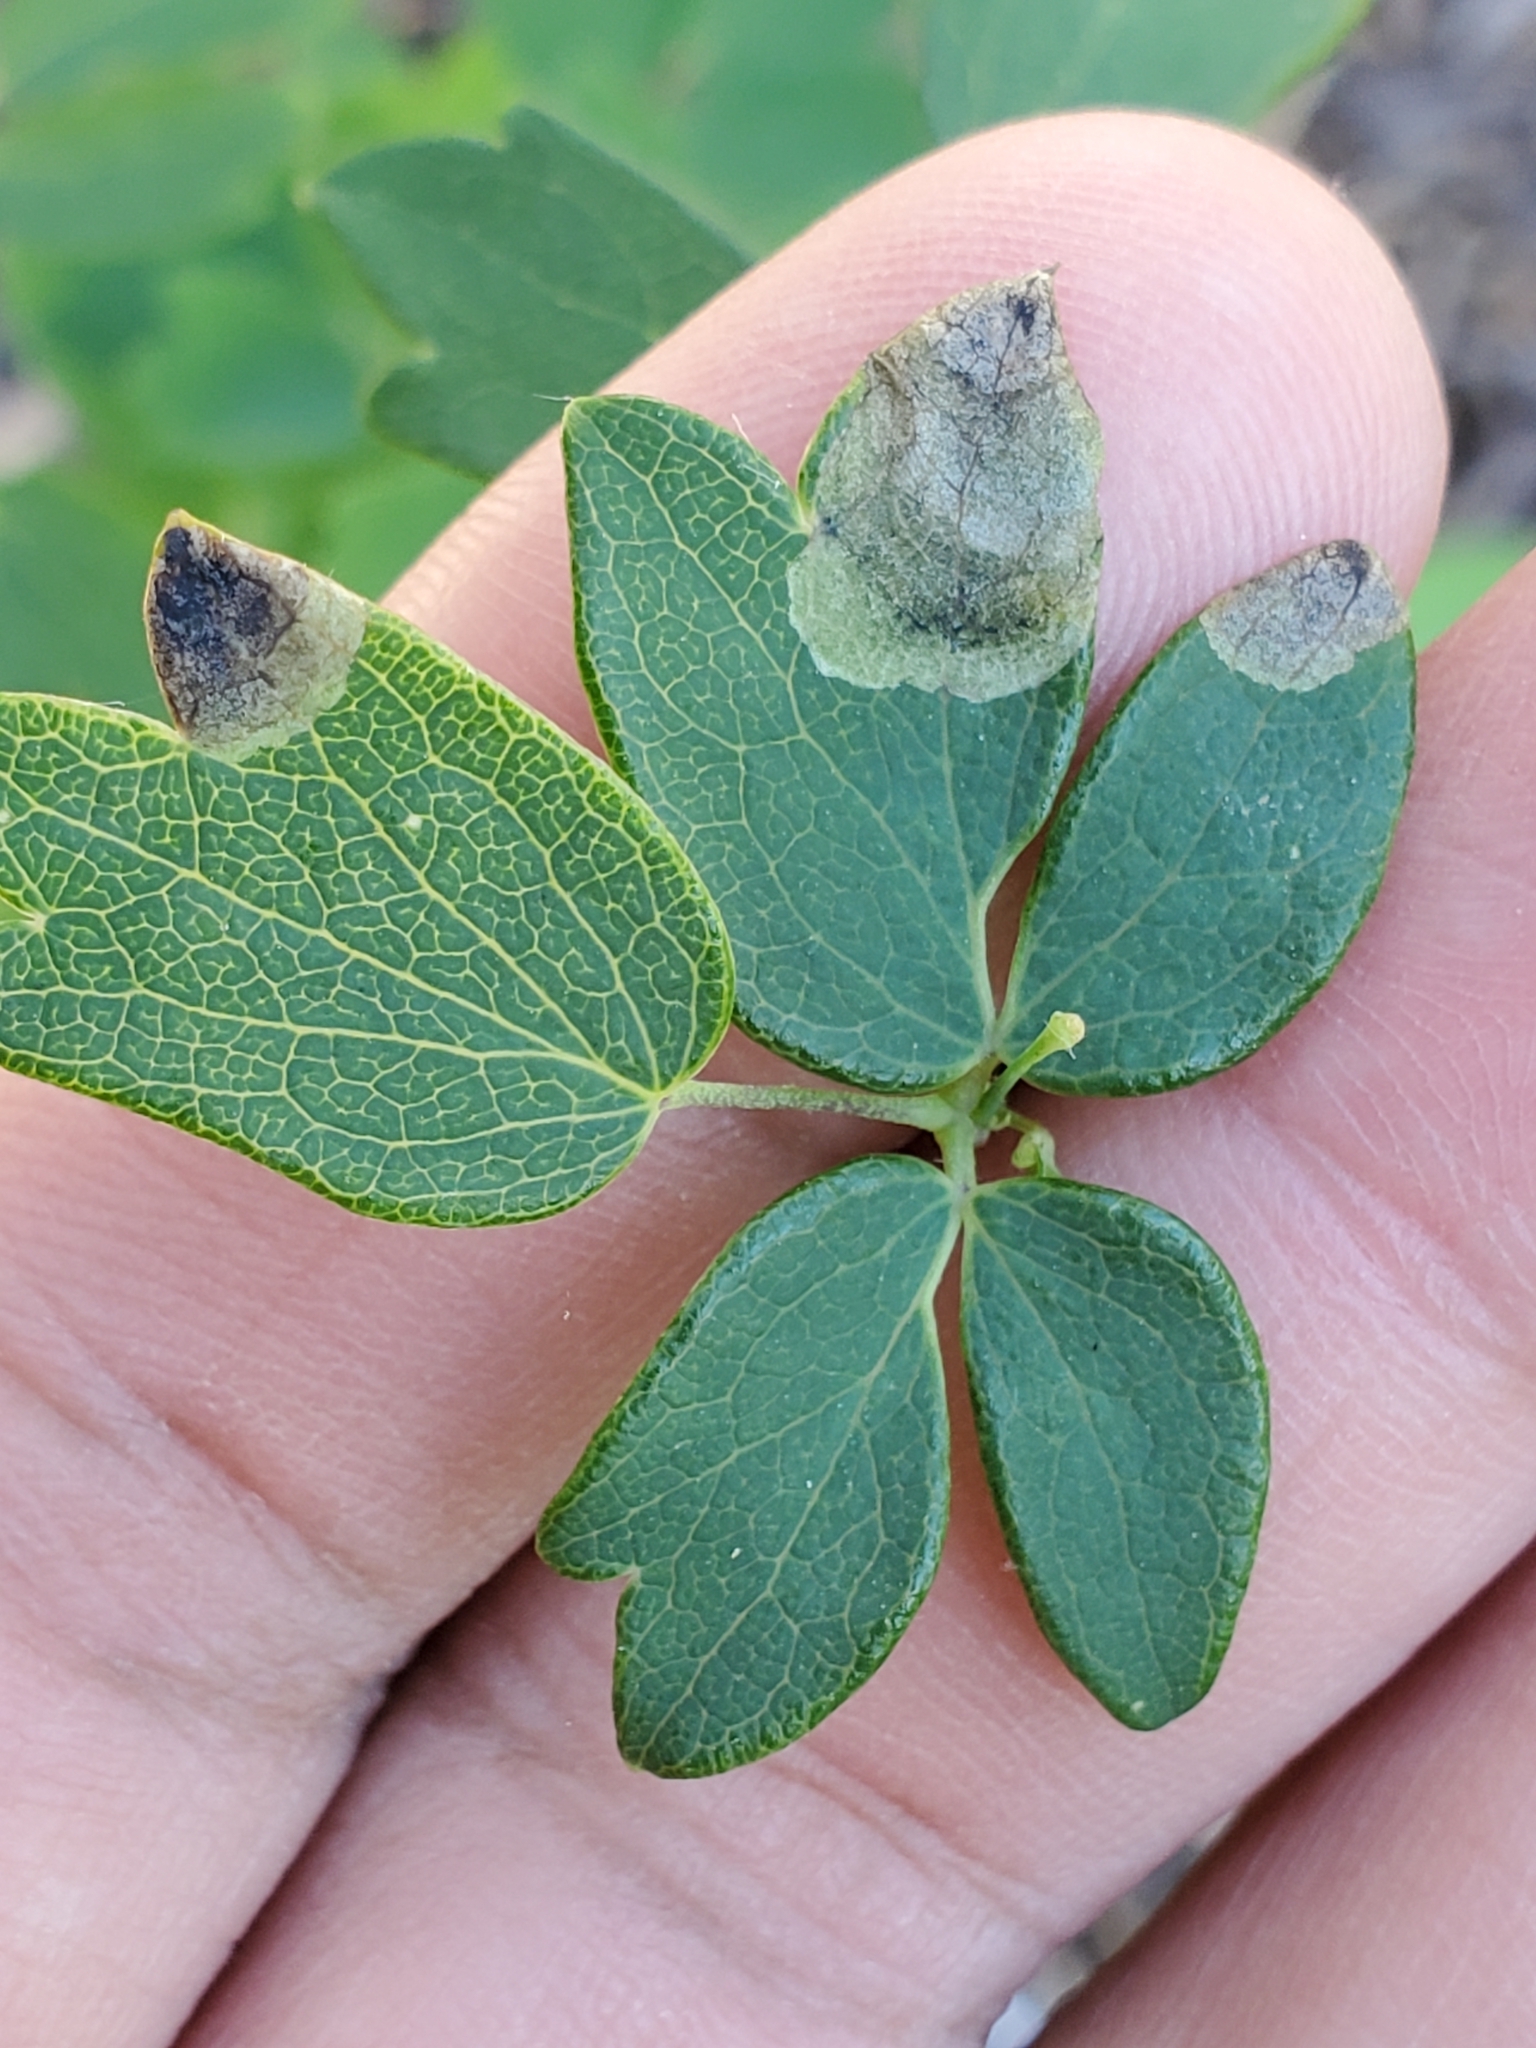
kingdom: Animalia
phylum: Arthropoda
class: Insecta
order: Diptera
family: Agromyzidae
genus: Phytomyza
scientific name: Phytomyza plumiseta
